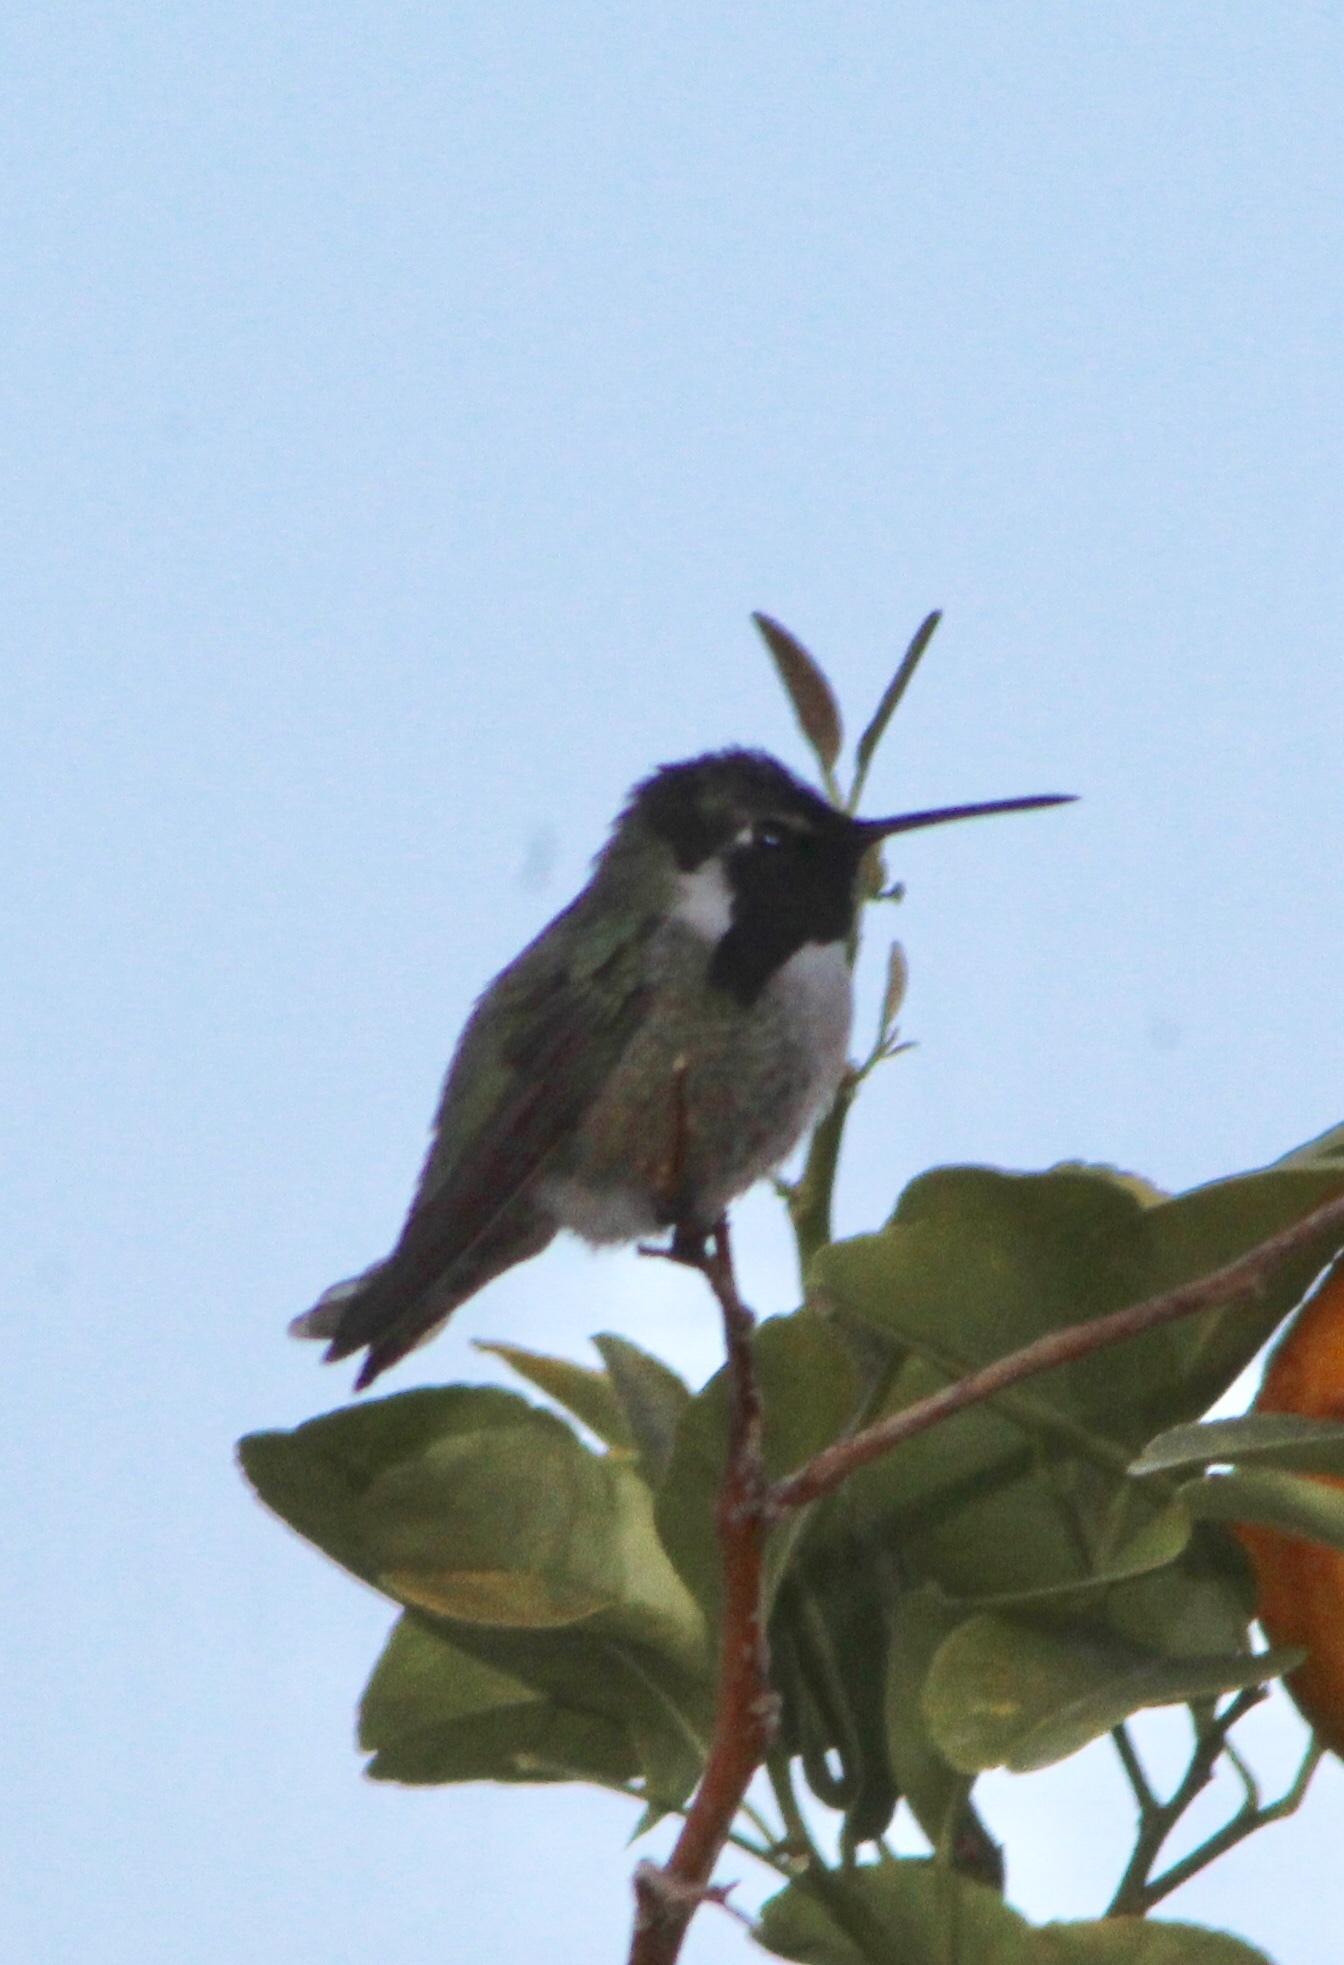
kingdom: Animalia
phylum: Chordata
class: Aves
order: Apodiformes
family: Trochilidae
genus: Calypte
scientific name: Calypte costae
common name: Costa's hummingbird
